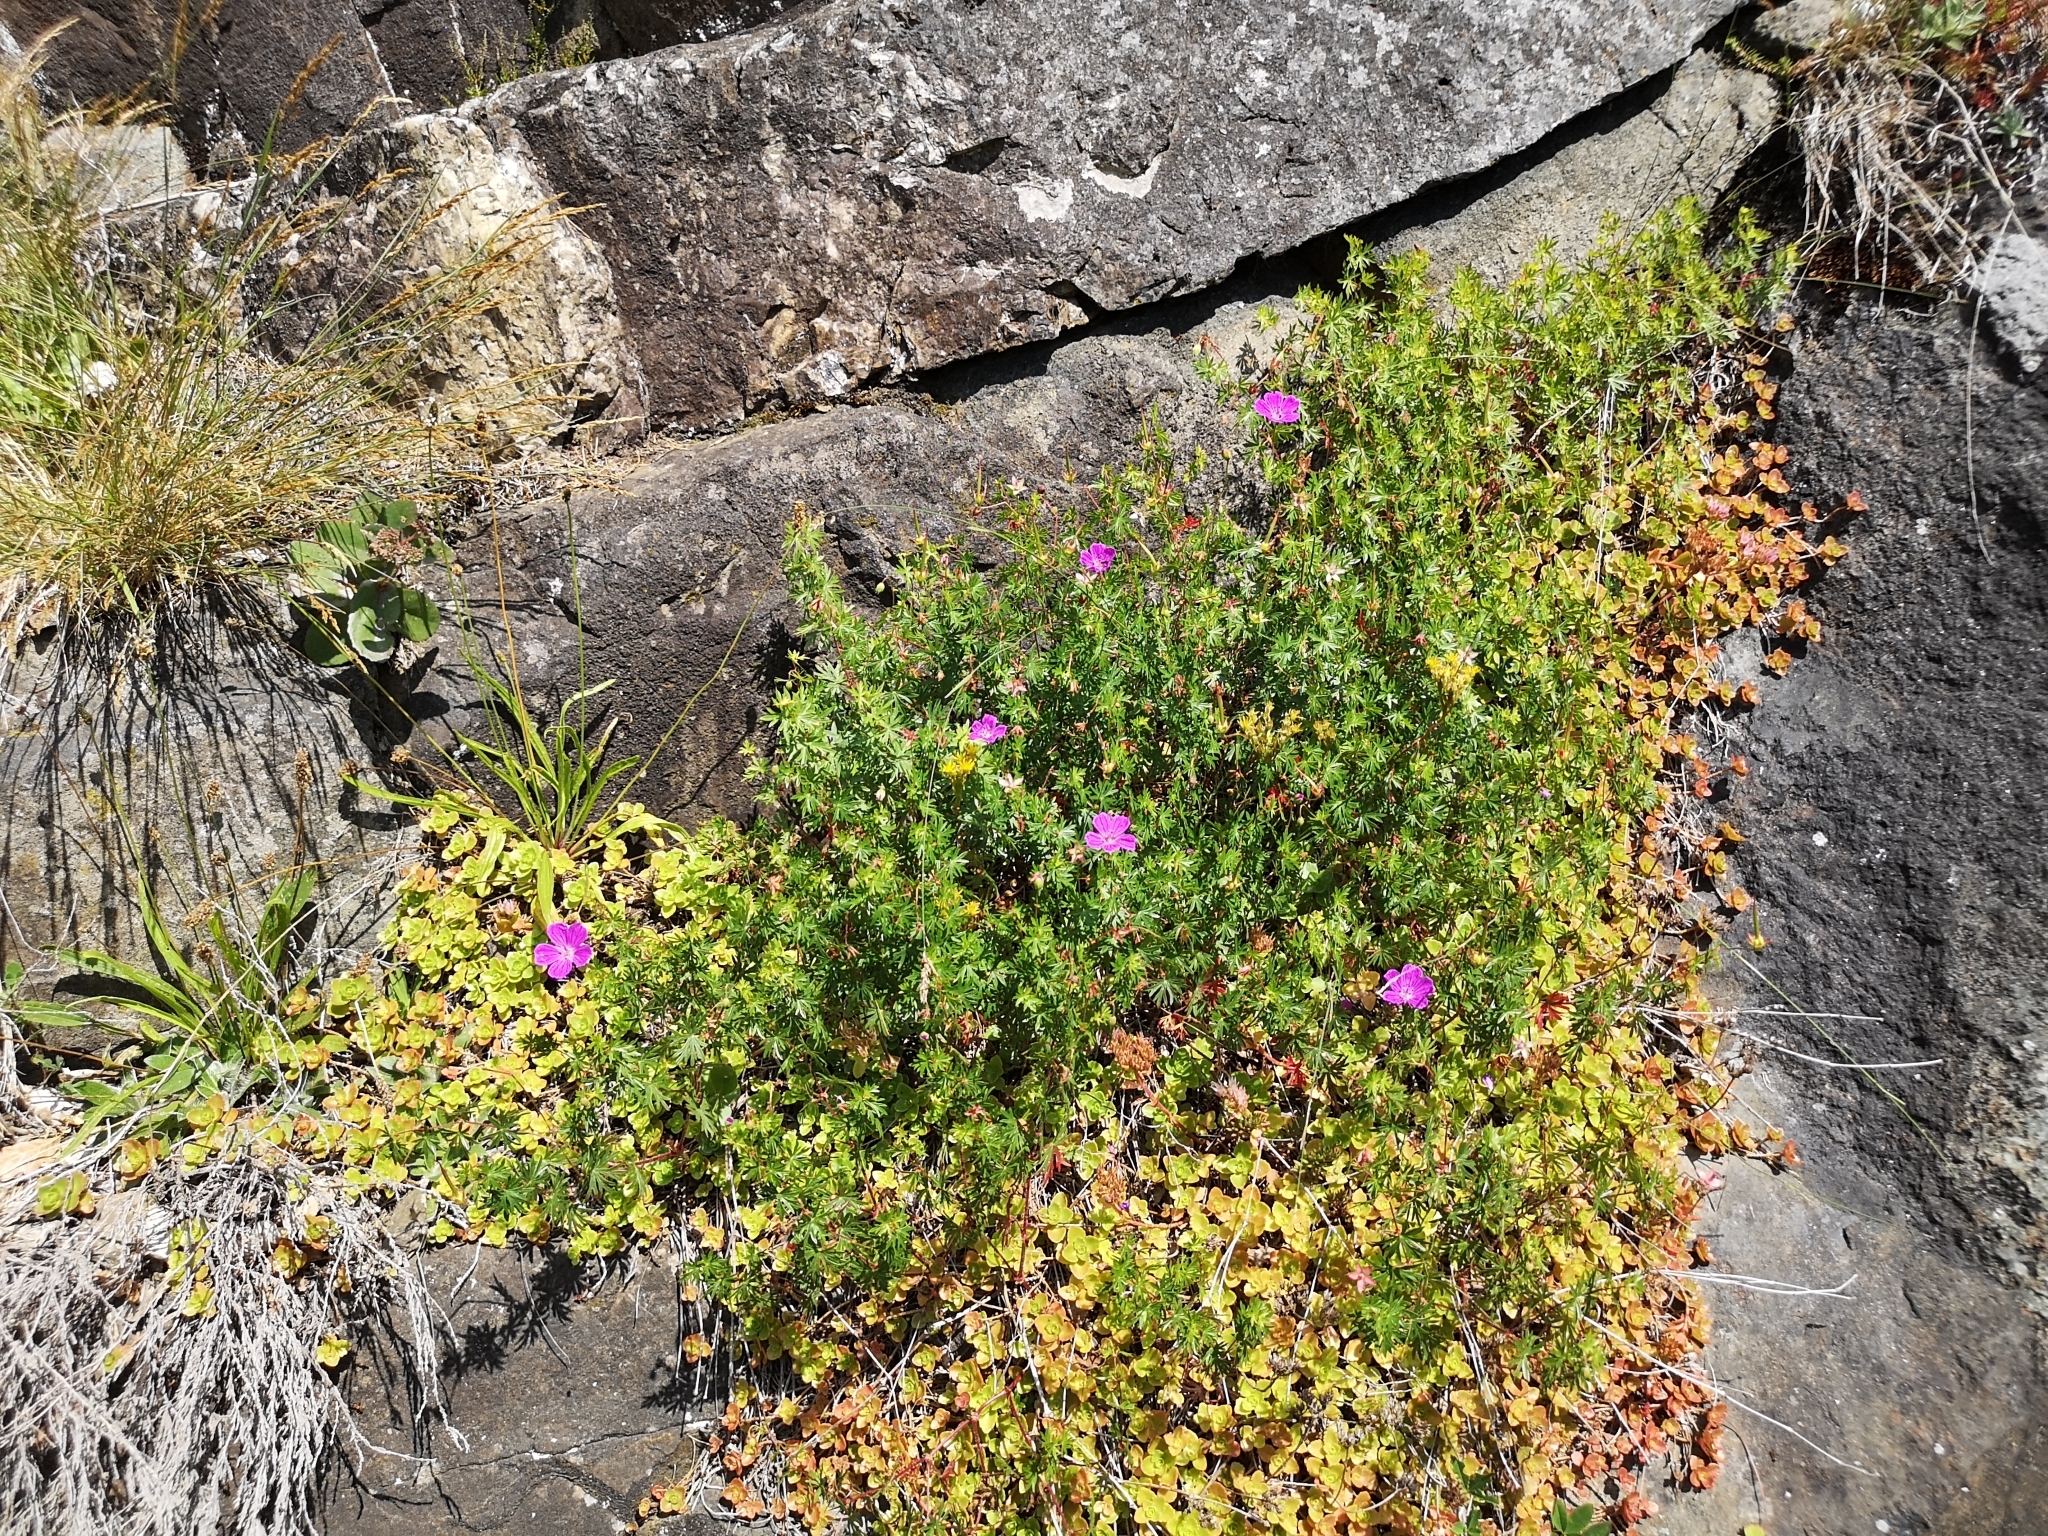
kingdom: Plantae
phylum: Tracheophyta
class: Magnoliopsida
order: Geraniales
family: Geraniaceae
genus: Geranium
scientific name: Geranium sanguineum
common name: Bloody crane's-bill
